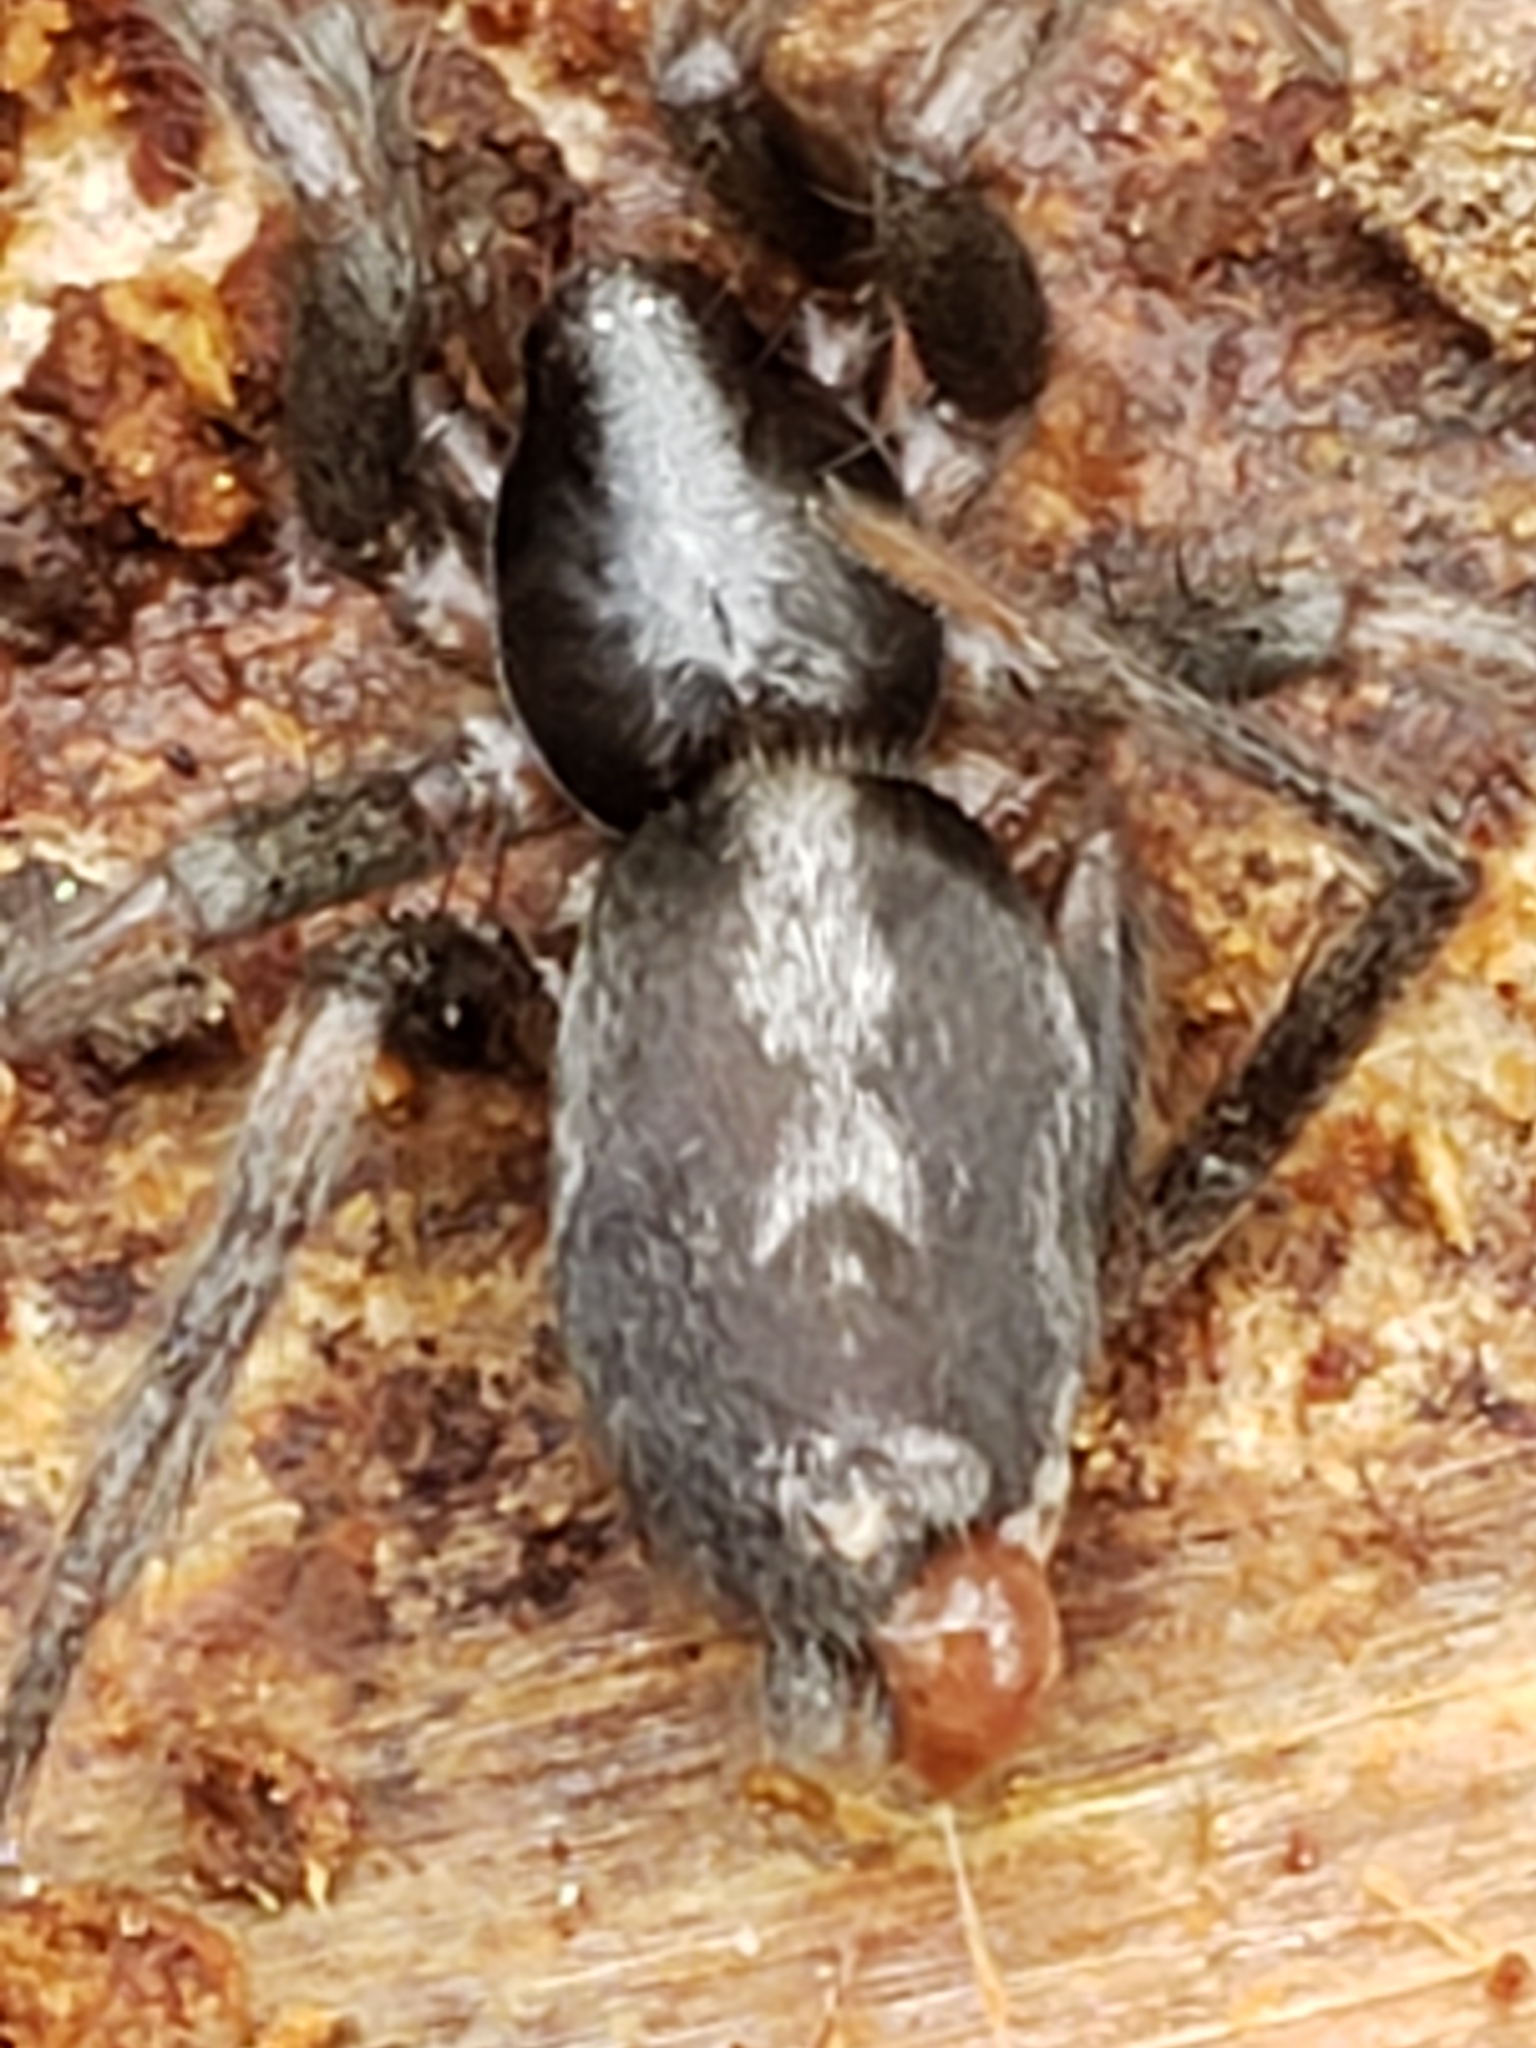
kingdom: Animalia
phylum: Arthropoda
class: Arachnida
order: Araneae
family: Gnaphosidae
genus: Herpyllus
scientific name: Herpyllus ecclesiasticus
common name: Eastern parson spider
